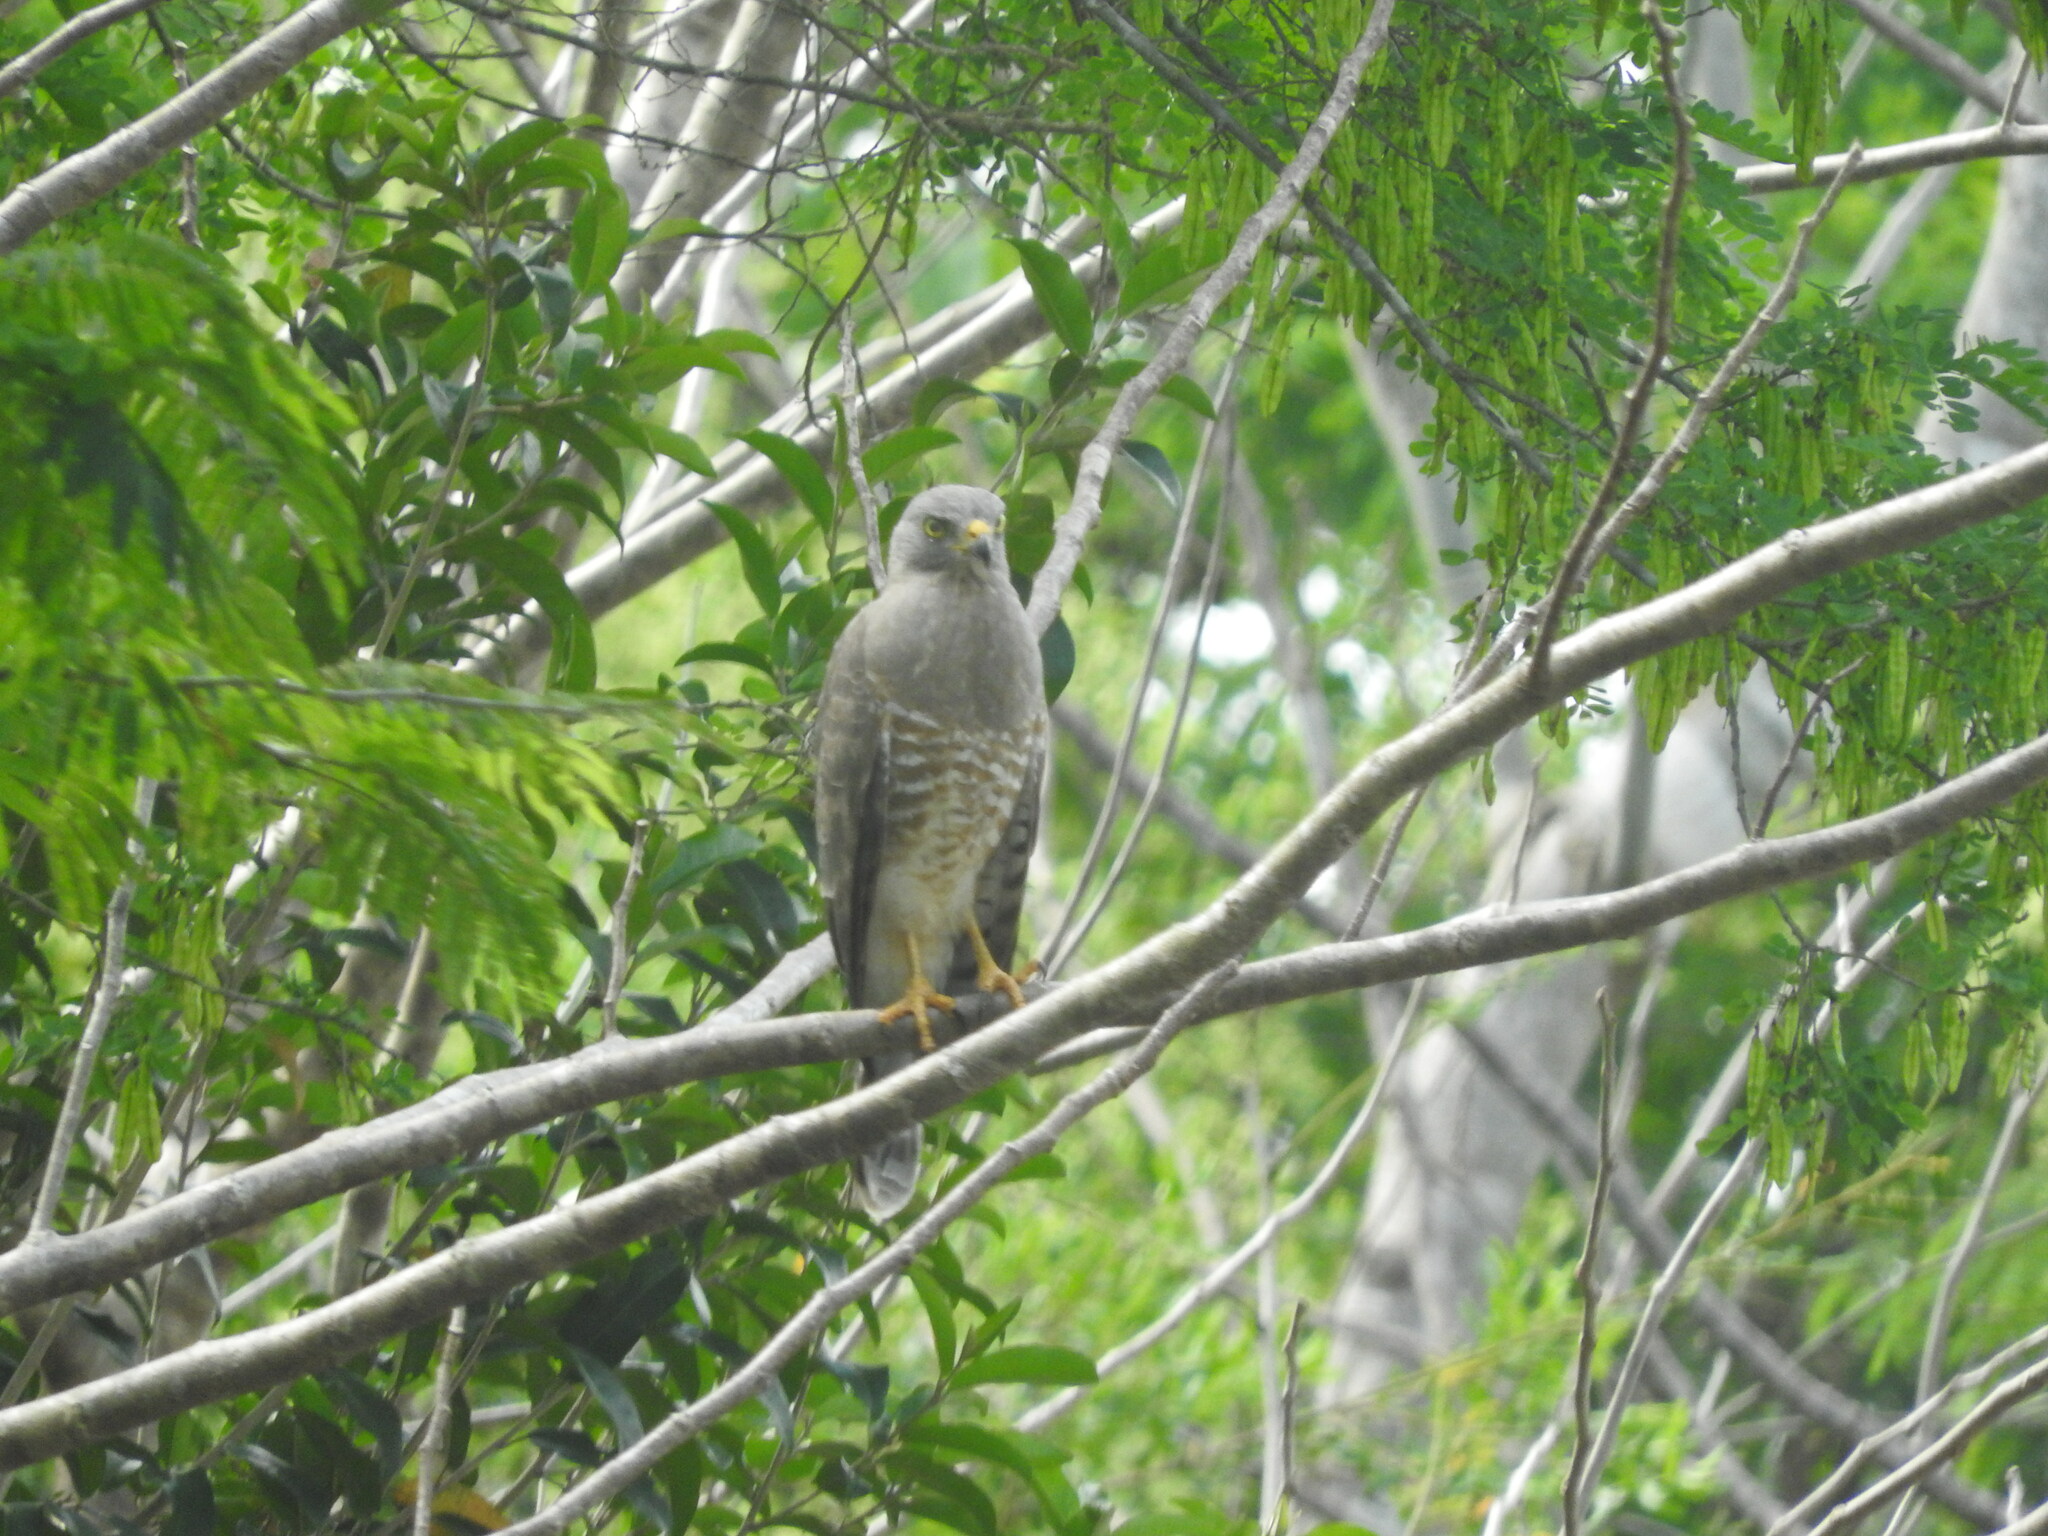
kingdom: Animalia
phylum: Chordata
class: Aves
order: Accipitriformes
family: Accipitridae
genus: Rupornis
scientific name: Rupornis magnirostris
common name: Roadside hawk
